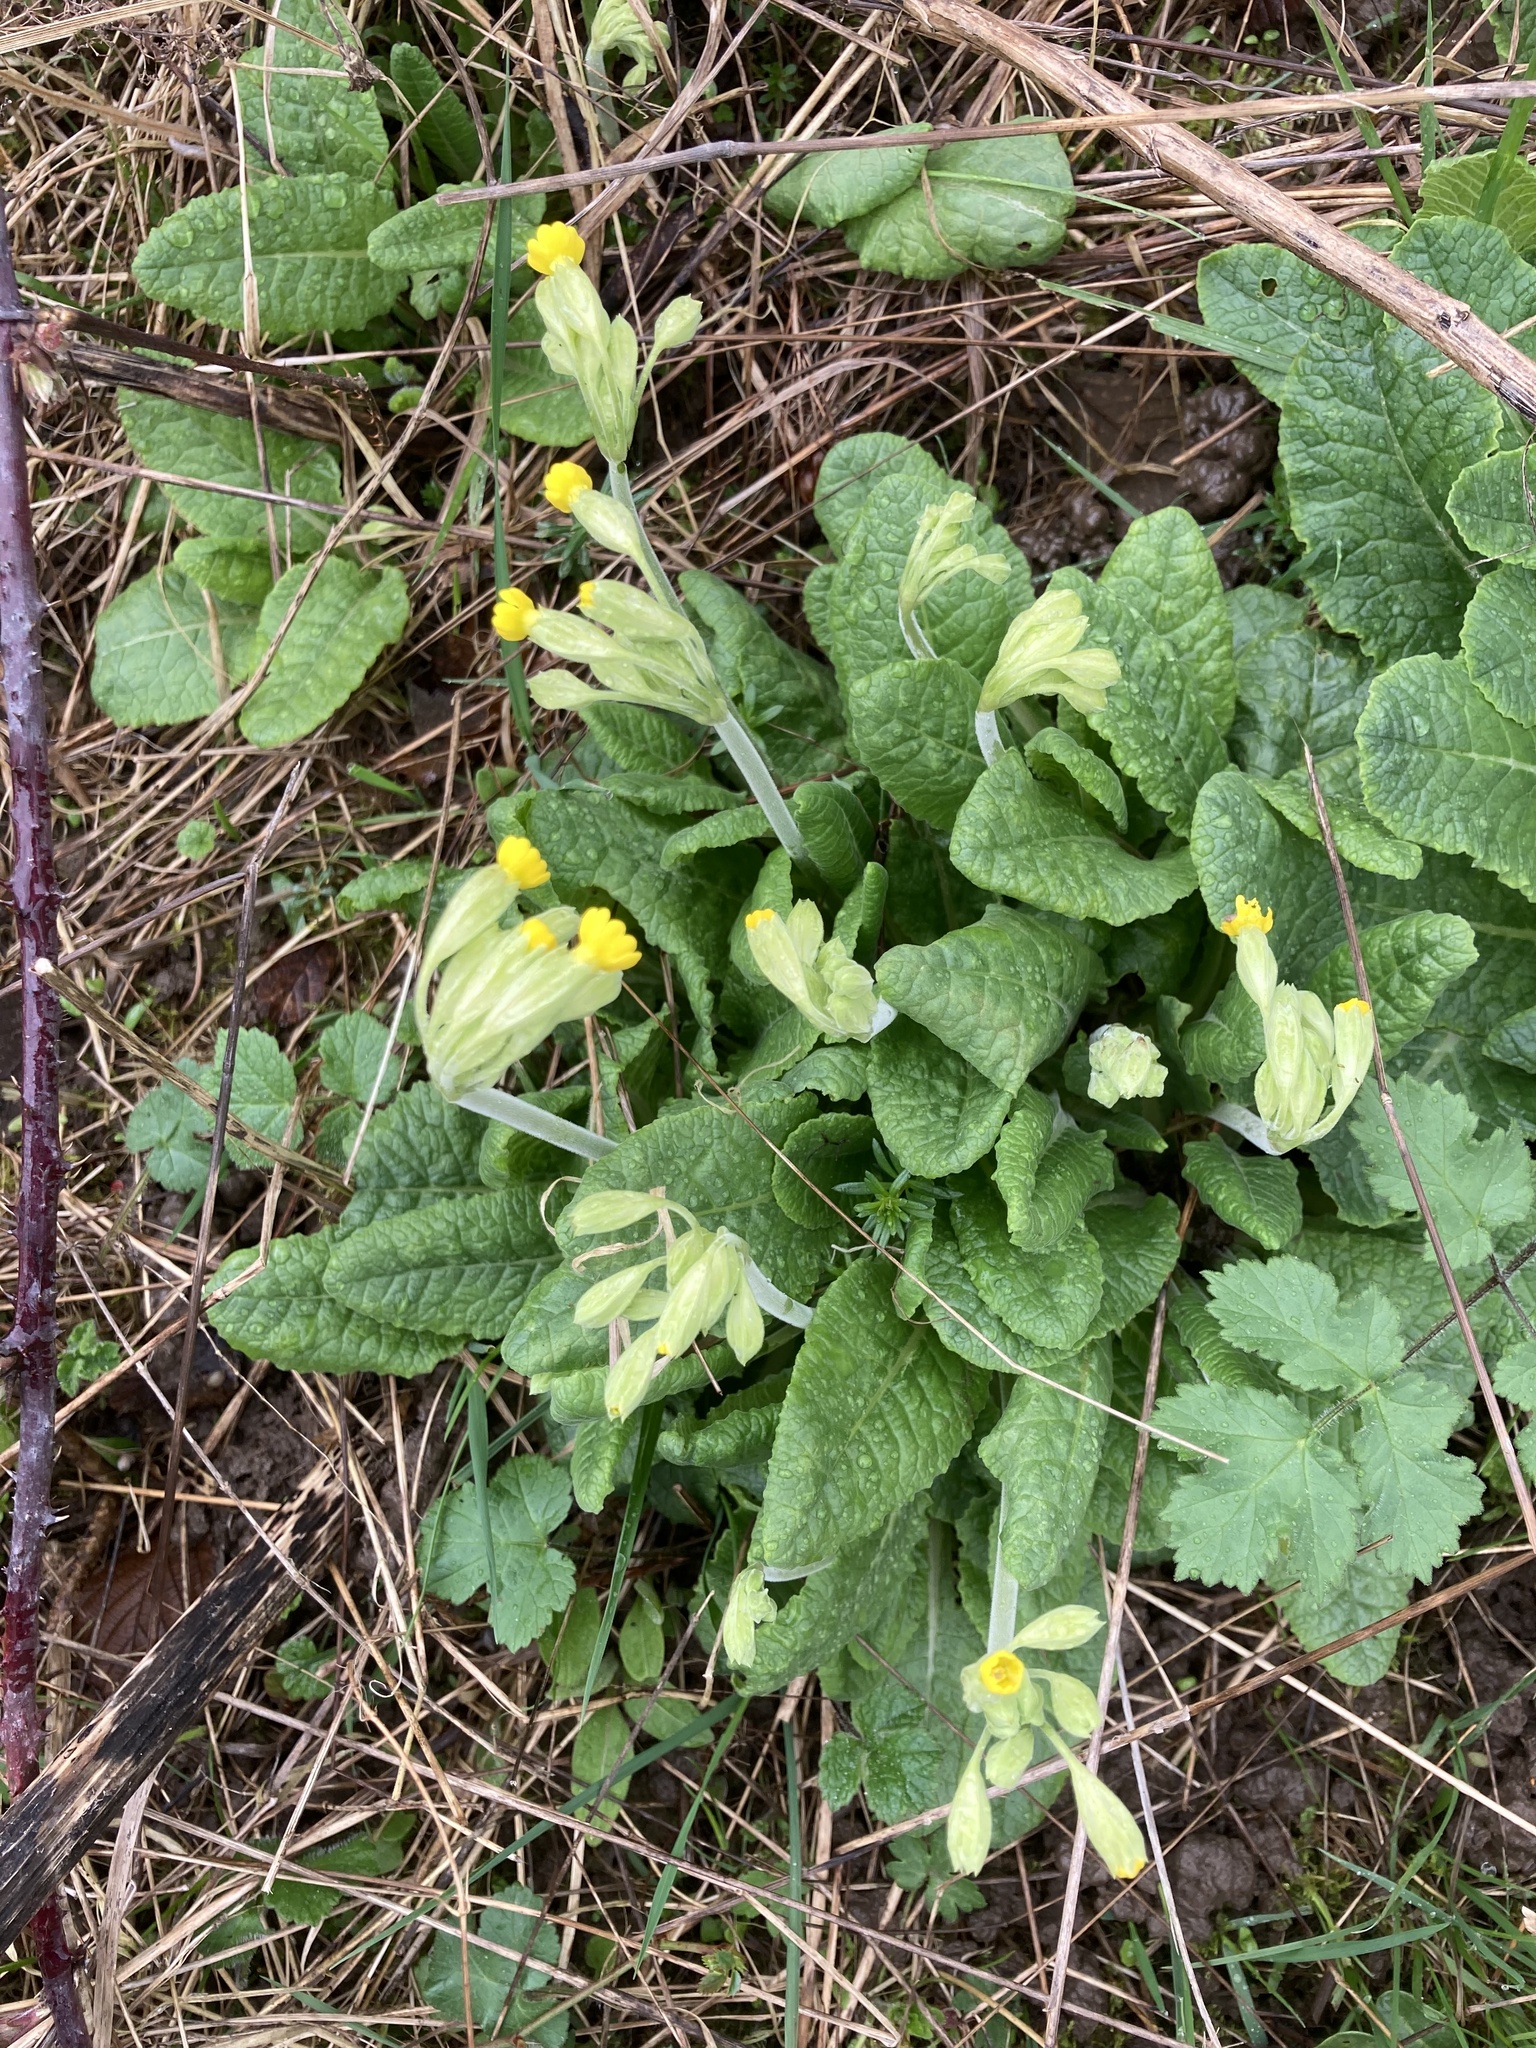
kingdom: Plantae
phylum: Tracheophyta
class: Magnoliopsida
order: Ericales
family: Primulaceae
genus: Primula
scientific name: Primula veris
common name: Cowslip
